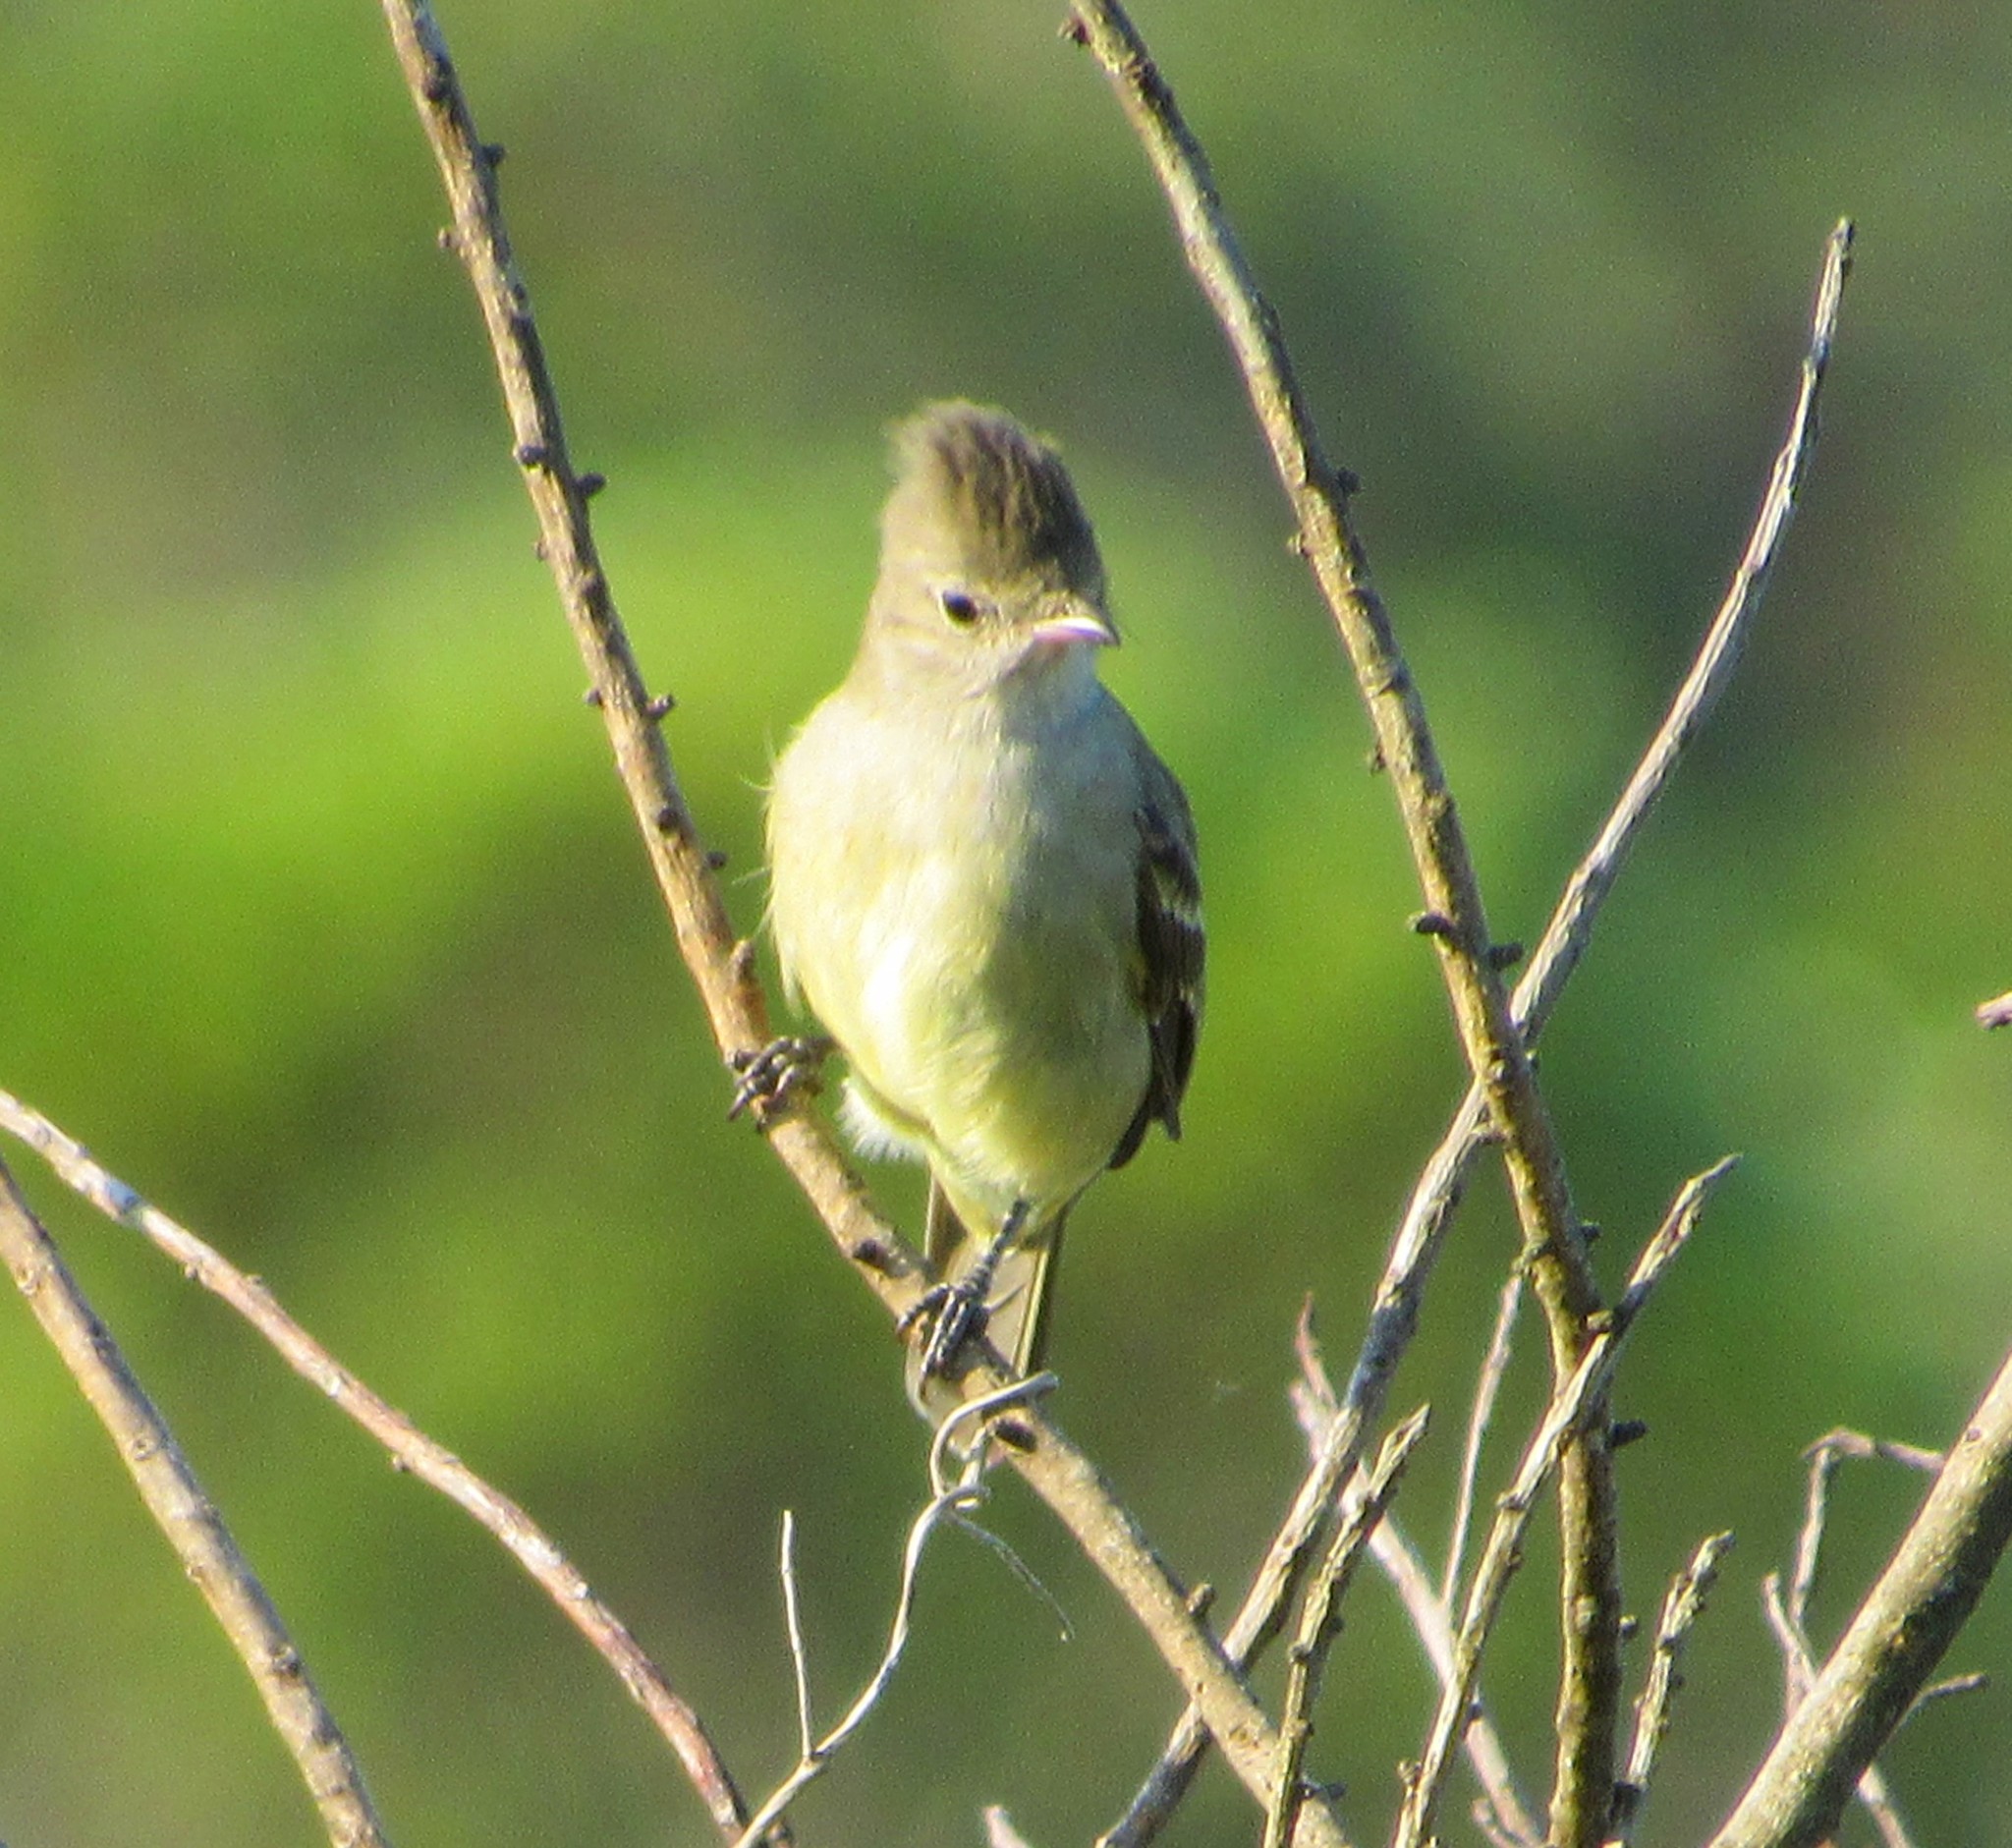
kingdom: Animalia
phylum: Chordata
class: Aves
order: Passeriformes
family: Tyrannidae
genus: Elaenia
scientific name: Elaenia
